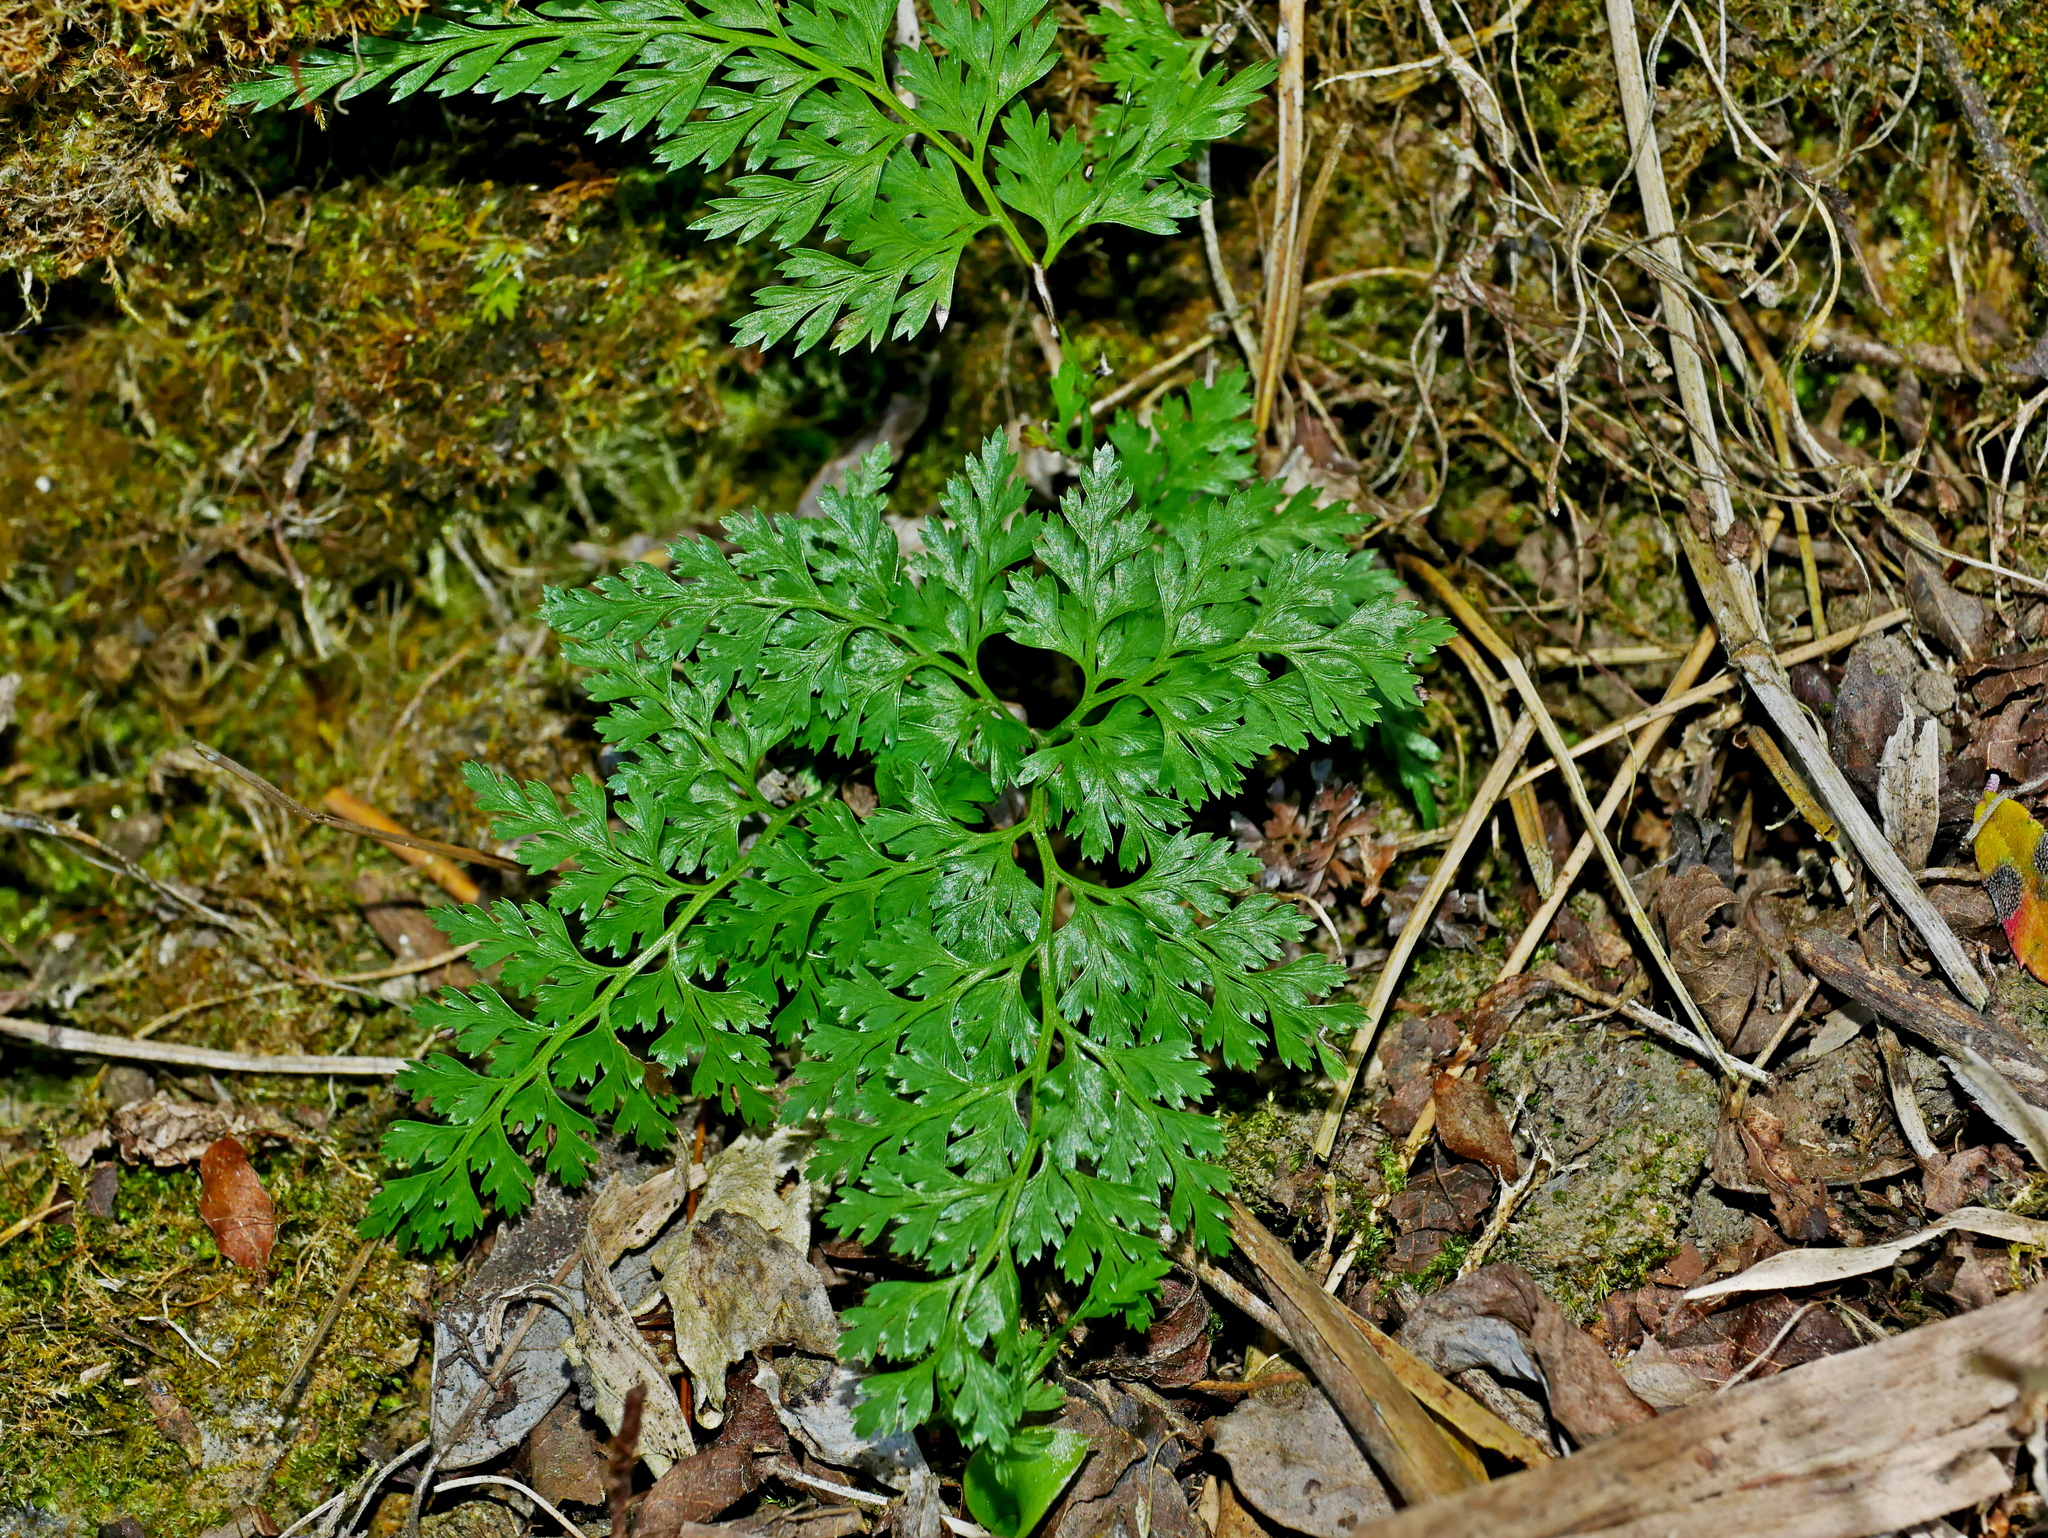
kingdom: Plantae
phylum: Tracheophyta
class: Polypodiopsida
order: Polypodiales
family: Pteridaceae
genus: Onychium
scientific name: Onychium lucidum
